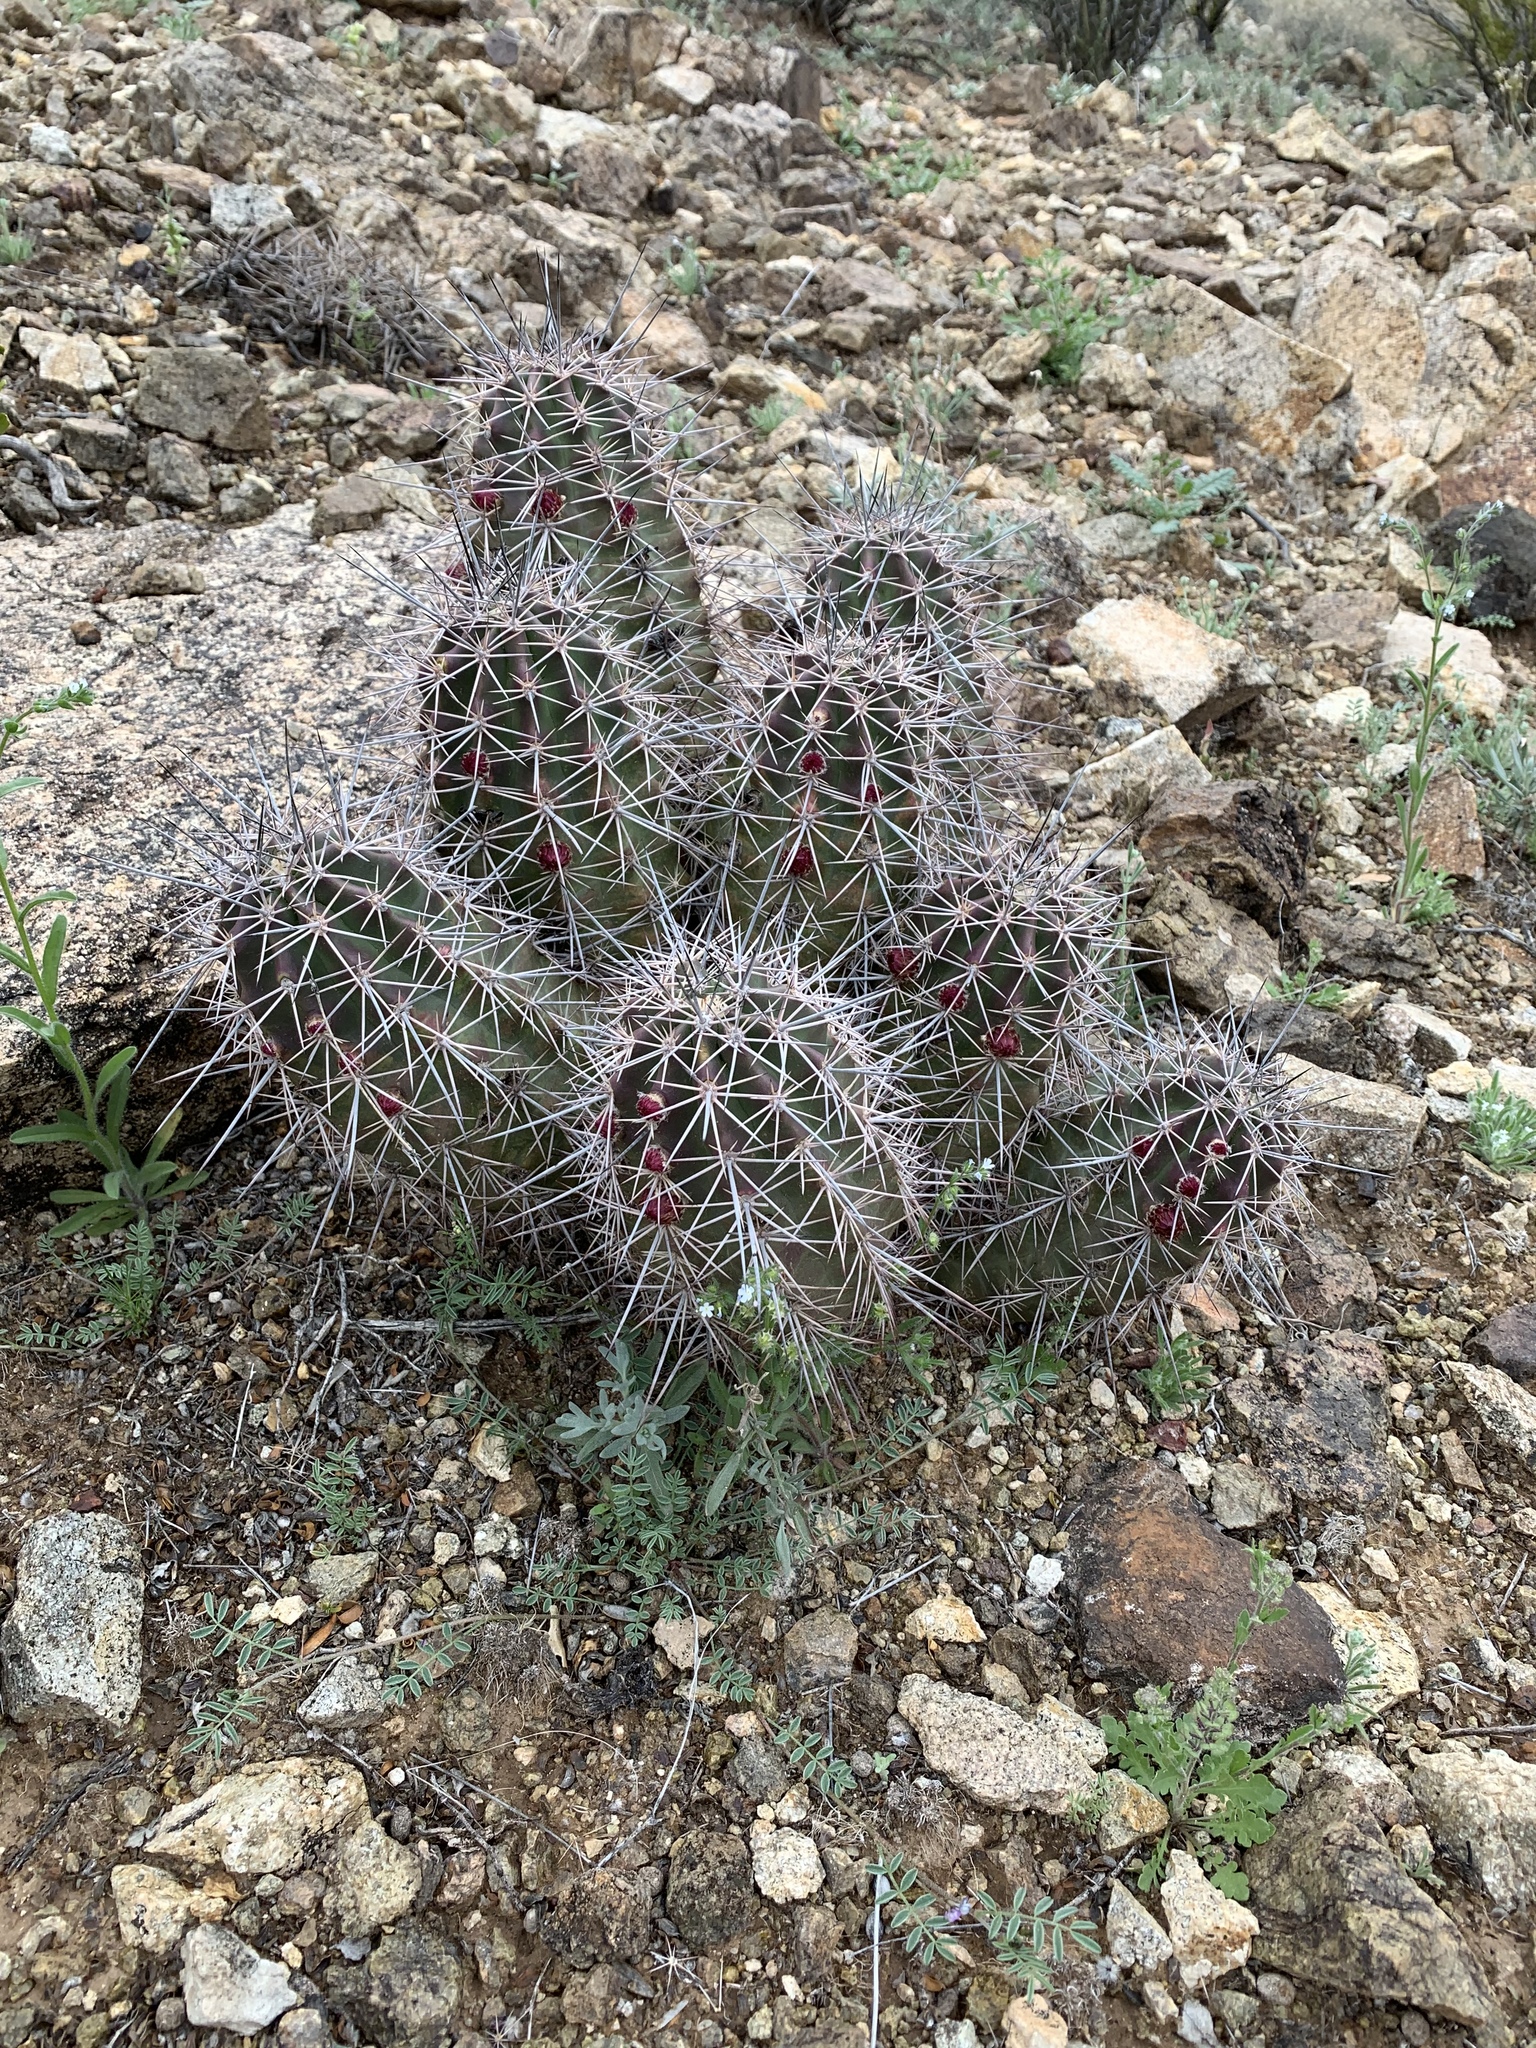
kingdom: Plantae
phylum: Tracheophyta
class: Magnoliopsida
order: Caryophyllales
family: Cactaceae
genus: Echinocereus
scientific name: Echinocereus coccineus
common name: Scarlet hedgehog cactus
